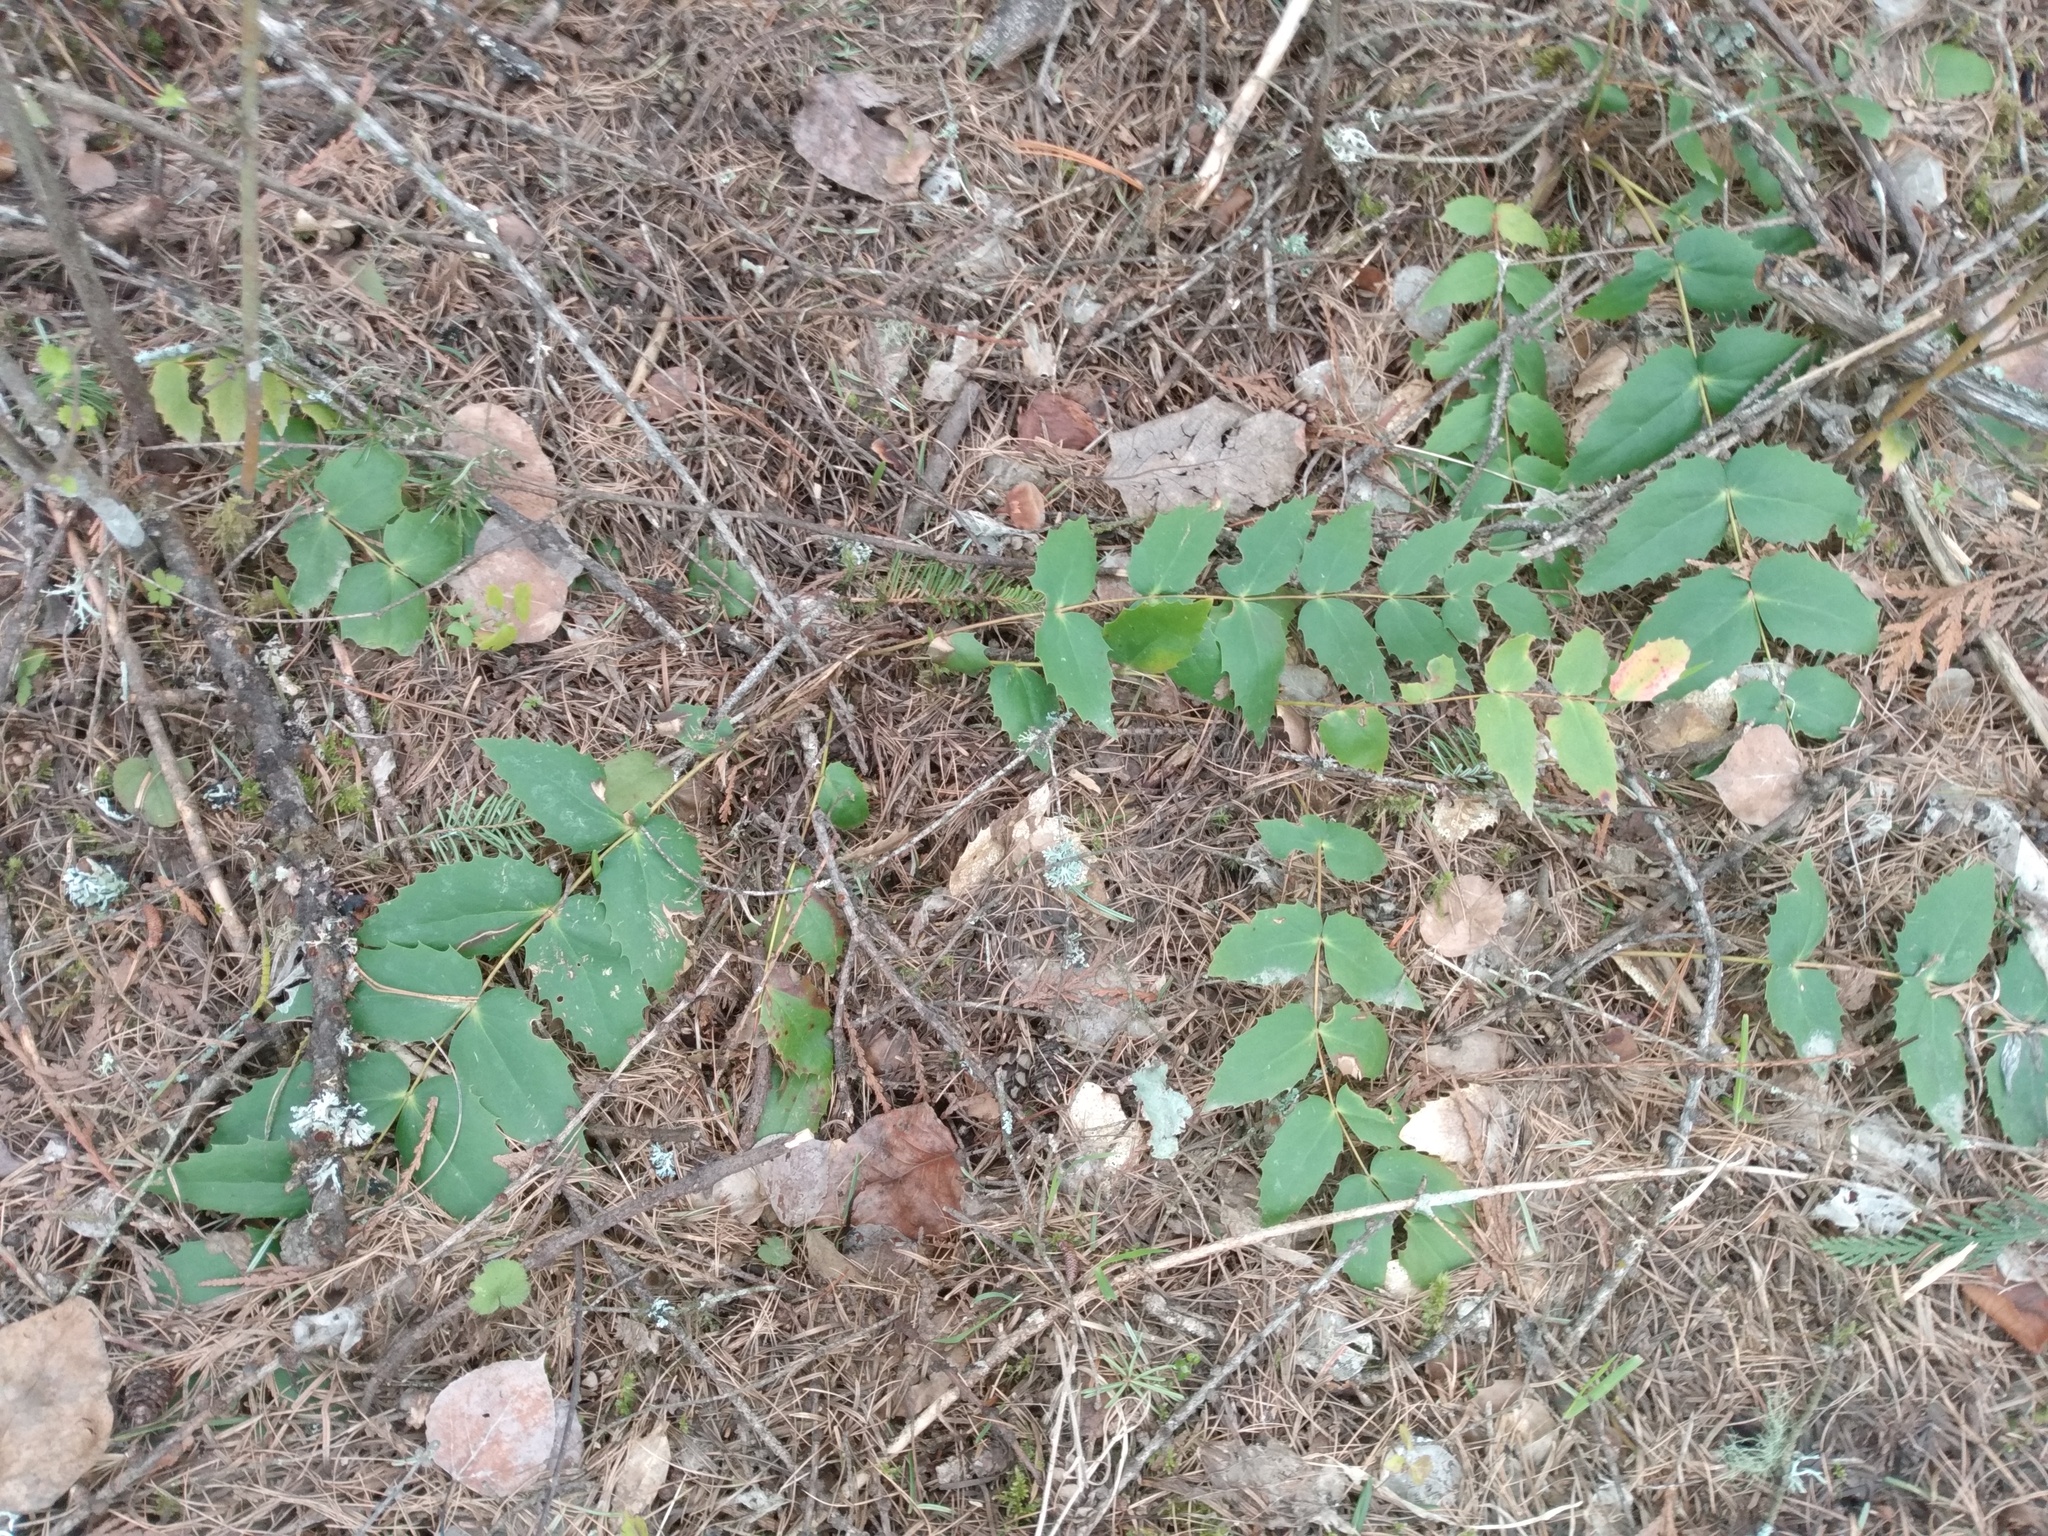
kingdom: Plantae
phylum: Tracheophyta
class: Magnoliopsida
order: Ranunculales
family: Berberidaceae
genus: Mahonia
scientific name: Mahonia nervosa
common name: Cascade oregon-grape
